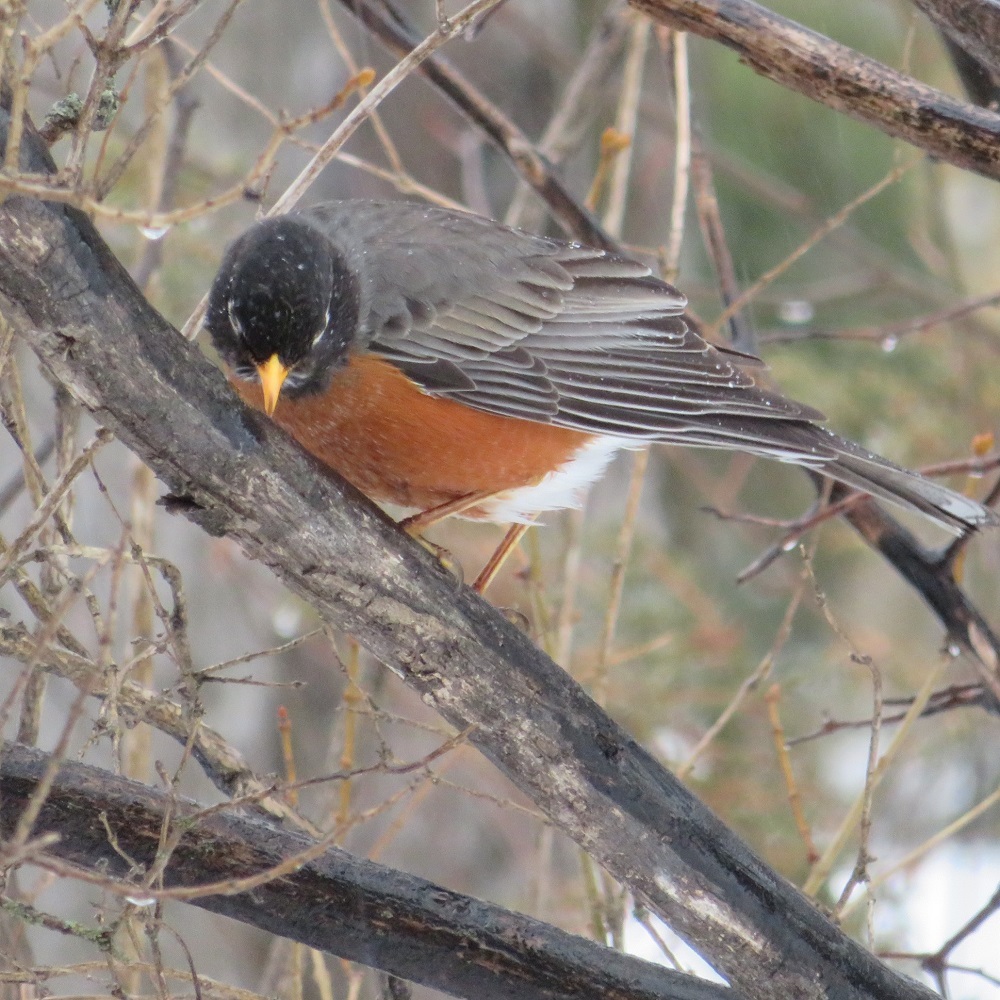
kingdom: Animalia
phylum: Chordata
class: Aves
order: Passeriformes
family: Turdidae
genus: Turdus
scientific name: Turdus migratorius
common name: American robin
